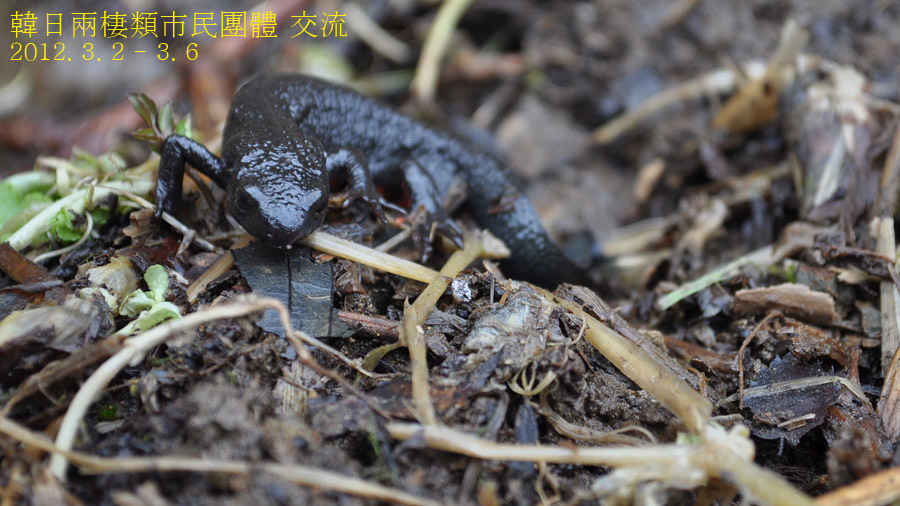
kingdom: Animalia
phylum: Chordata
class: Amphibia
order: Caudata
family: Salamandridae
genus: Cynops
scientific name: Cynops pyrrhogaster
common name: Japanese fire-bellied newt
